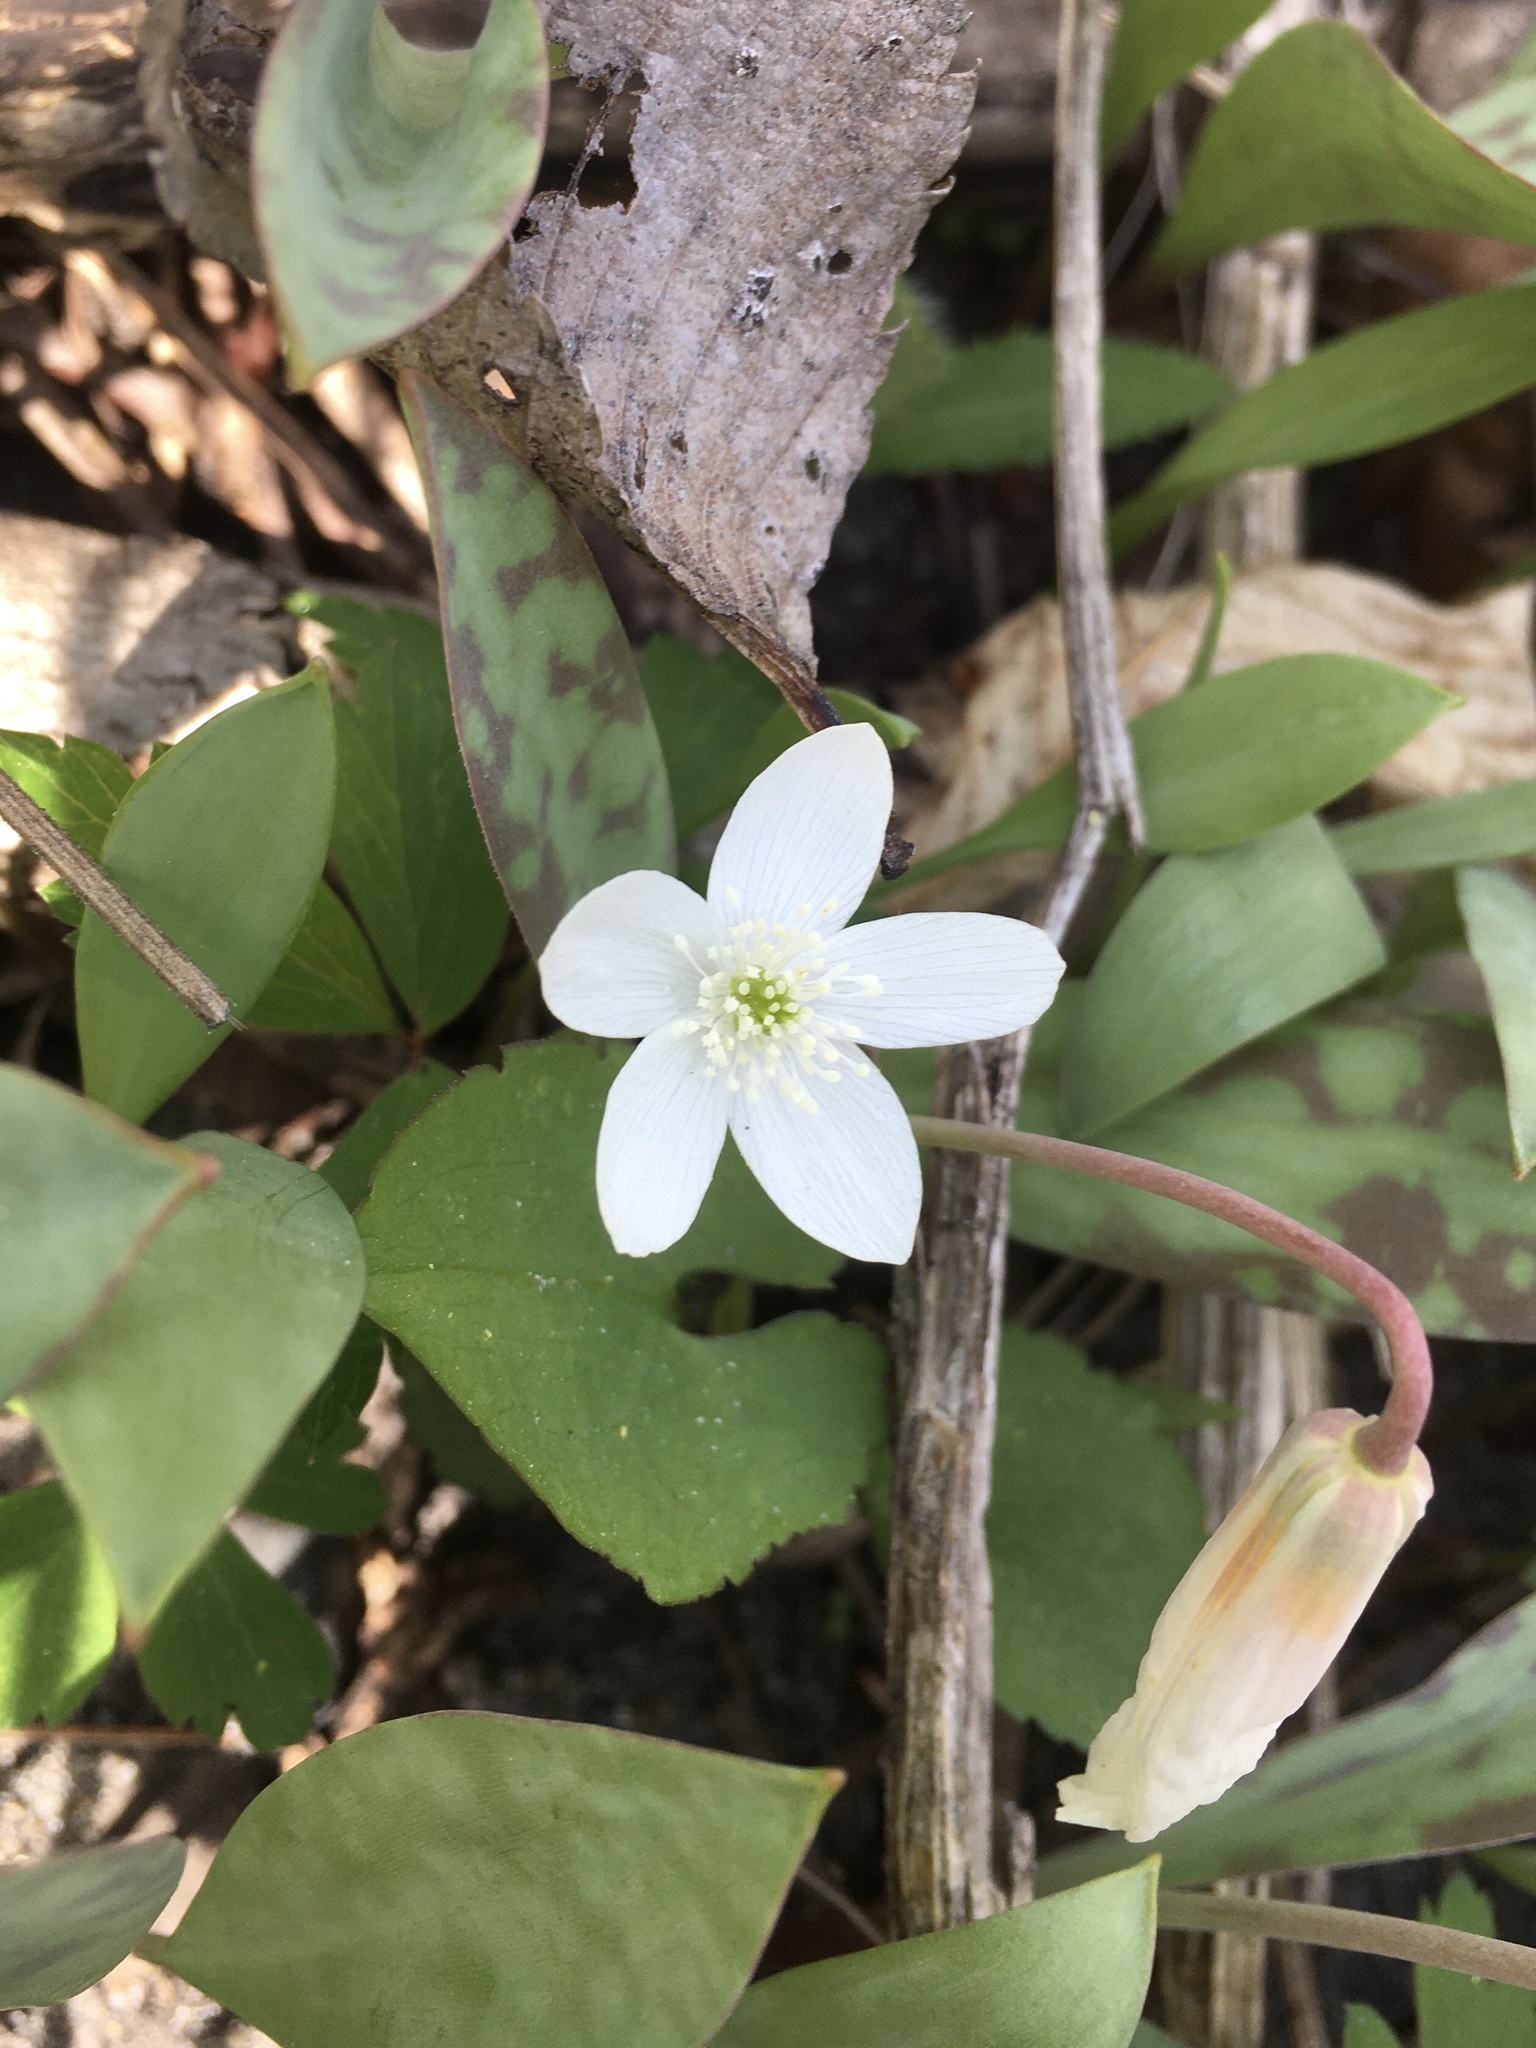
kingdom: Plantae
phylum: Tracheophyta
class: Magnoliopsida
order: Ranunculales
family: Ranunculaceae
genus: Anemone
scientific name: Anemone quinquefolia
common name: Wood anemone
